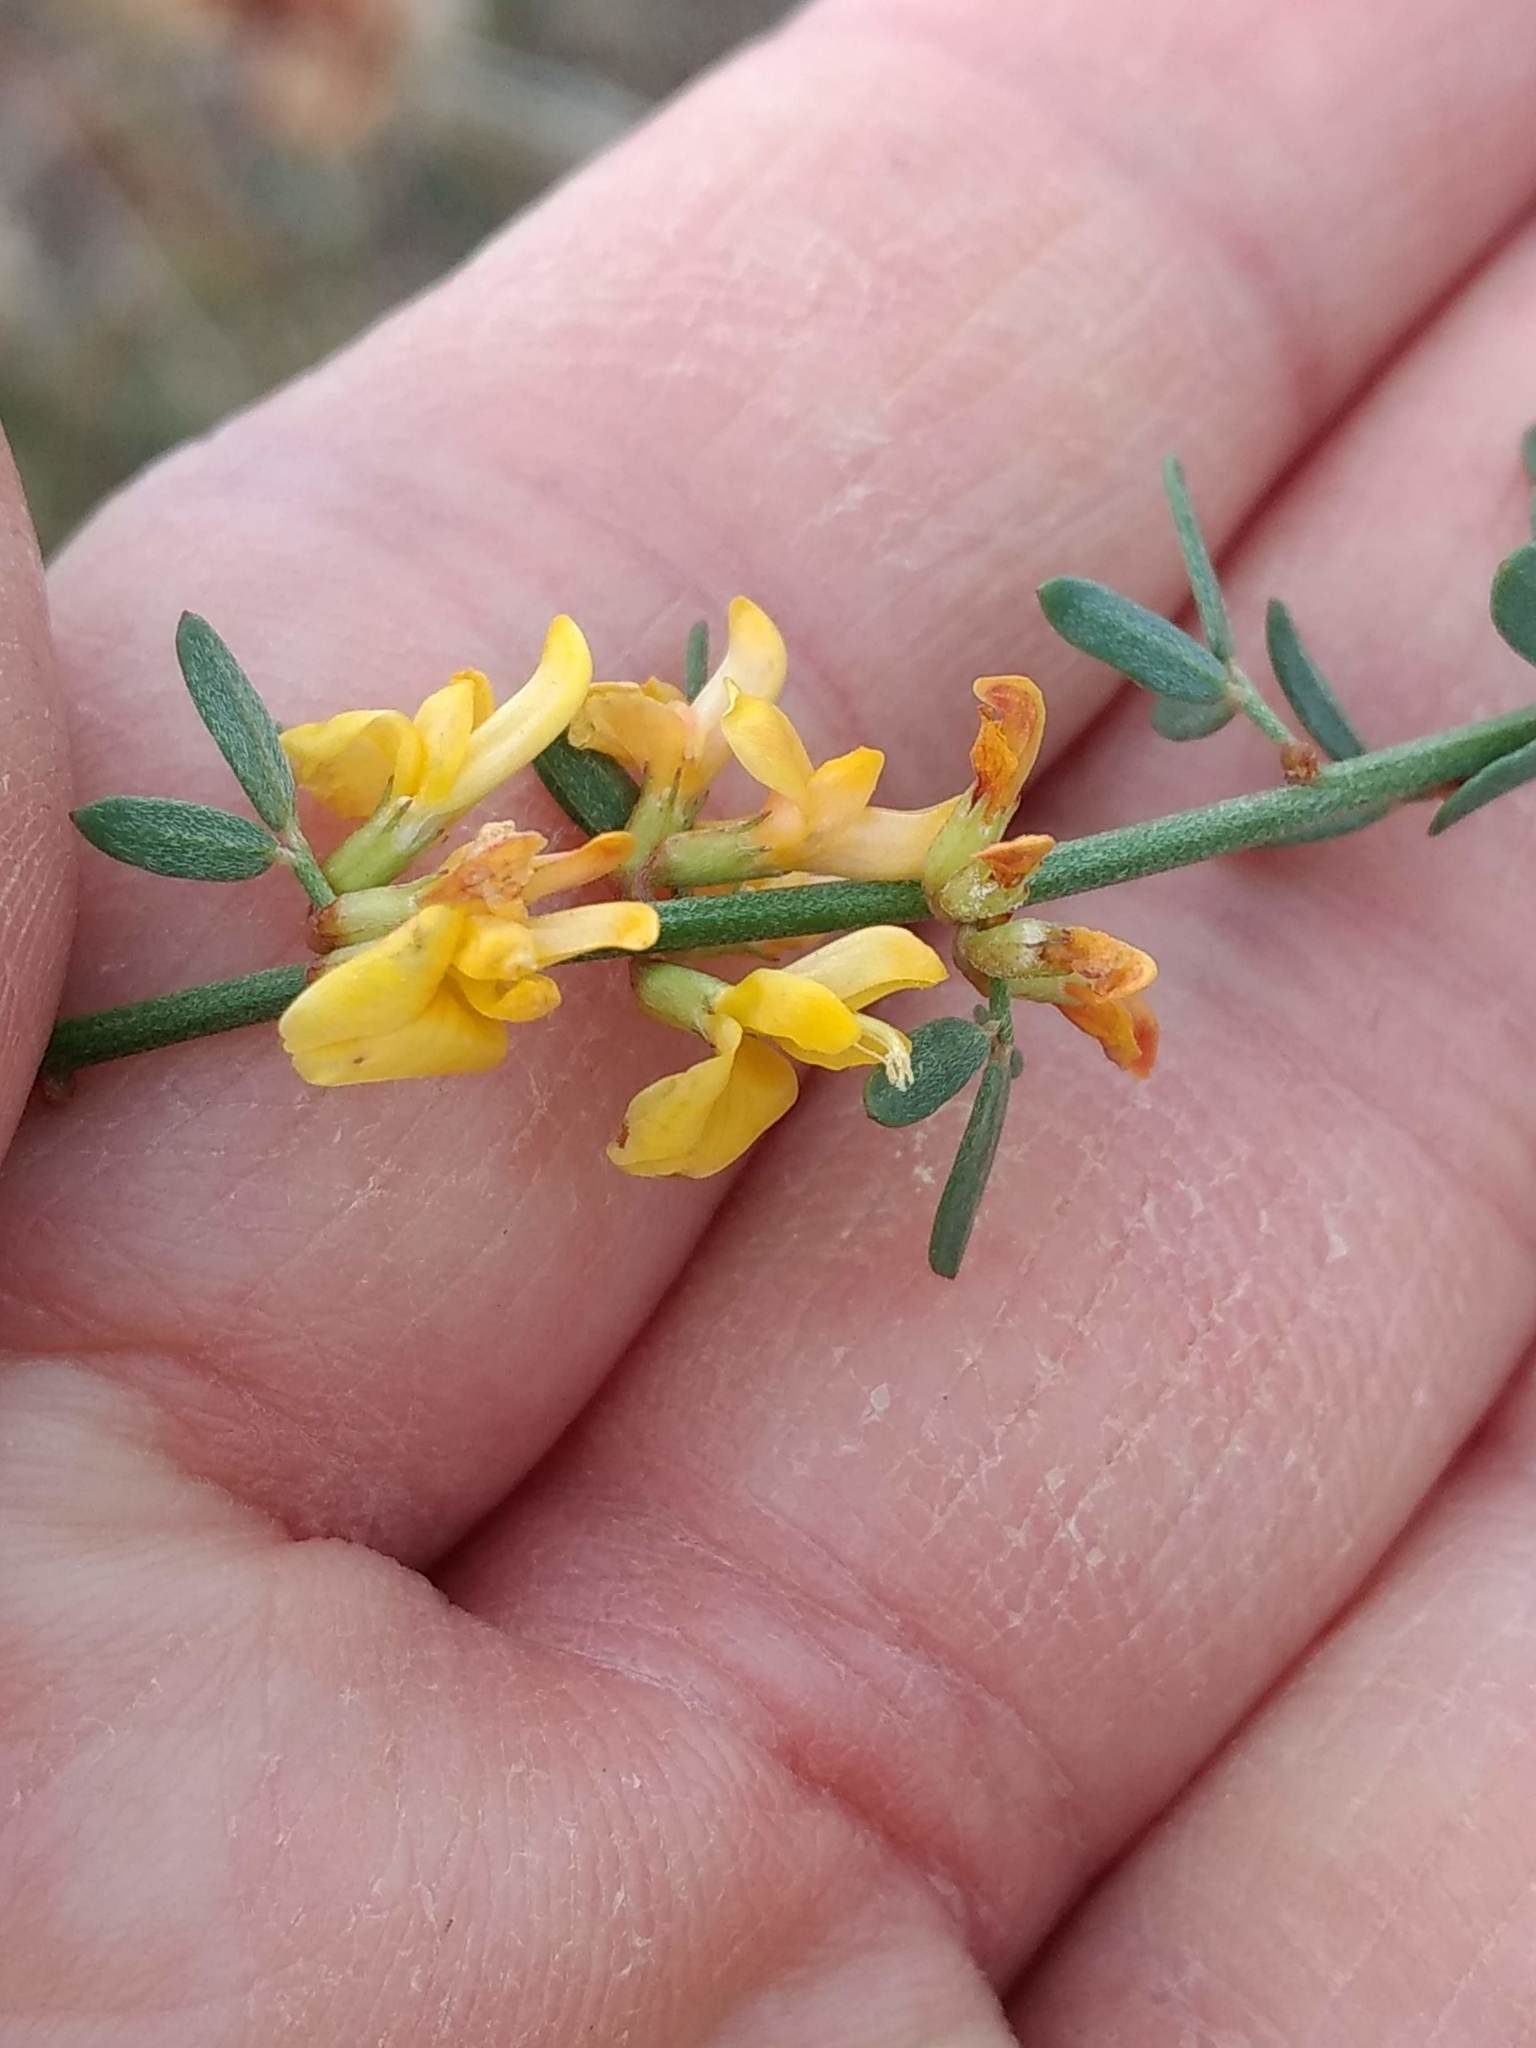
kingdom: Plantae
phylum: Tracheophyta
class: Magnoliopsida
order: Fabales
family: Fabaceae
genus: Acmispon
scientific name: Acmispon glaber
